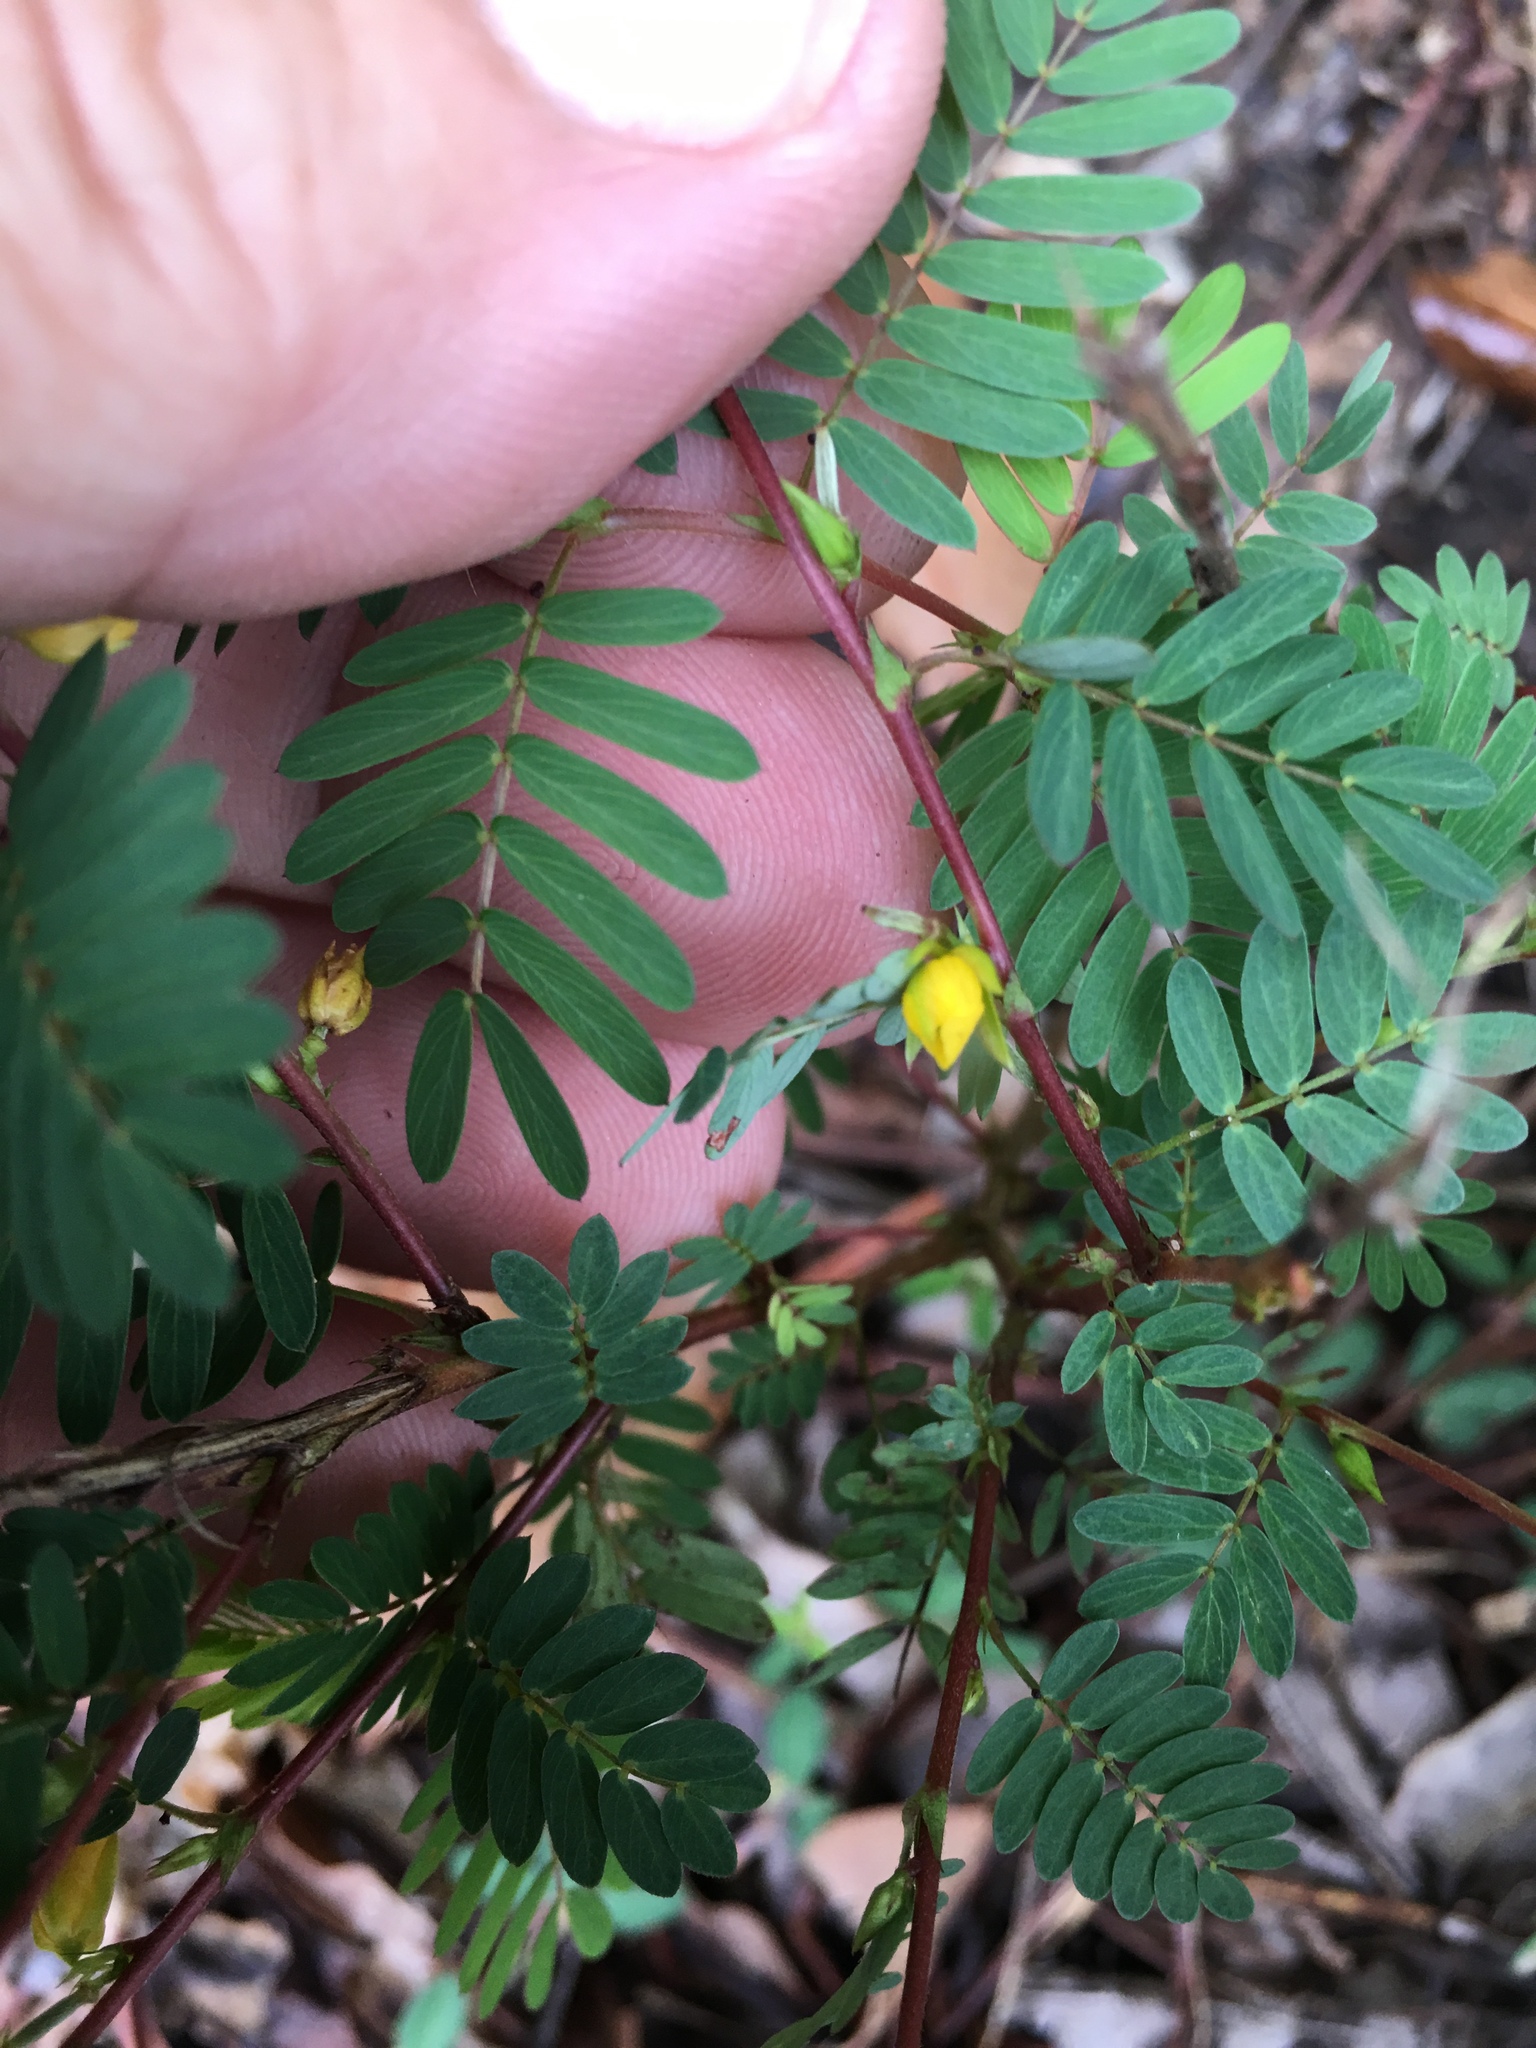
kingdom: Plantae
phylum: Tracheophyta
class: Magnoliopsida
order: Fabales
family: Fabaceae
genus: Chamaecrista
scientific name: Chamaecrista nictitans
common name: Sensitive cassia
